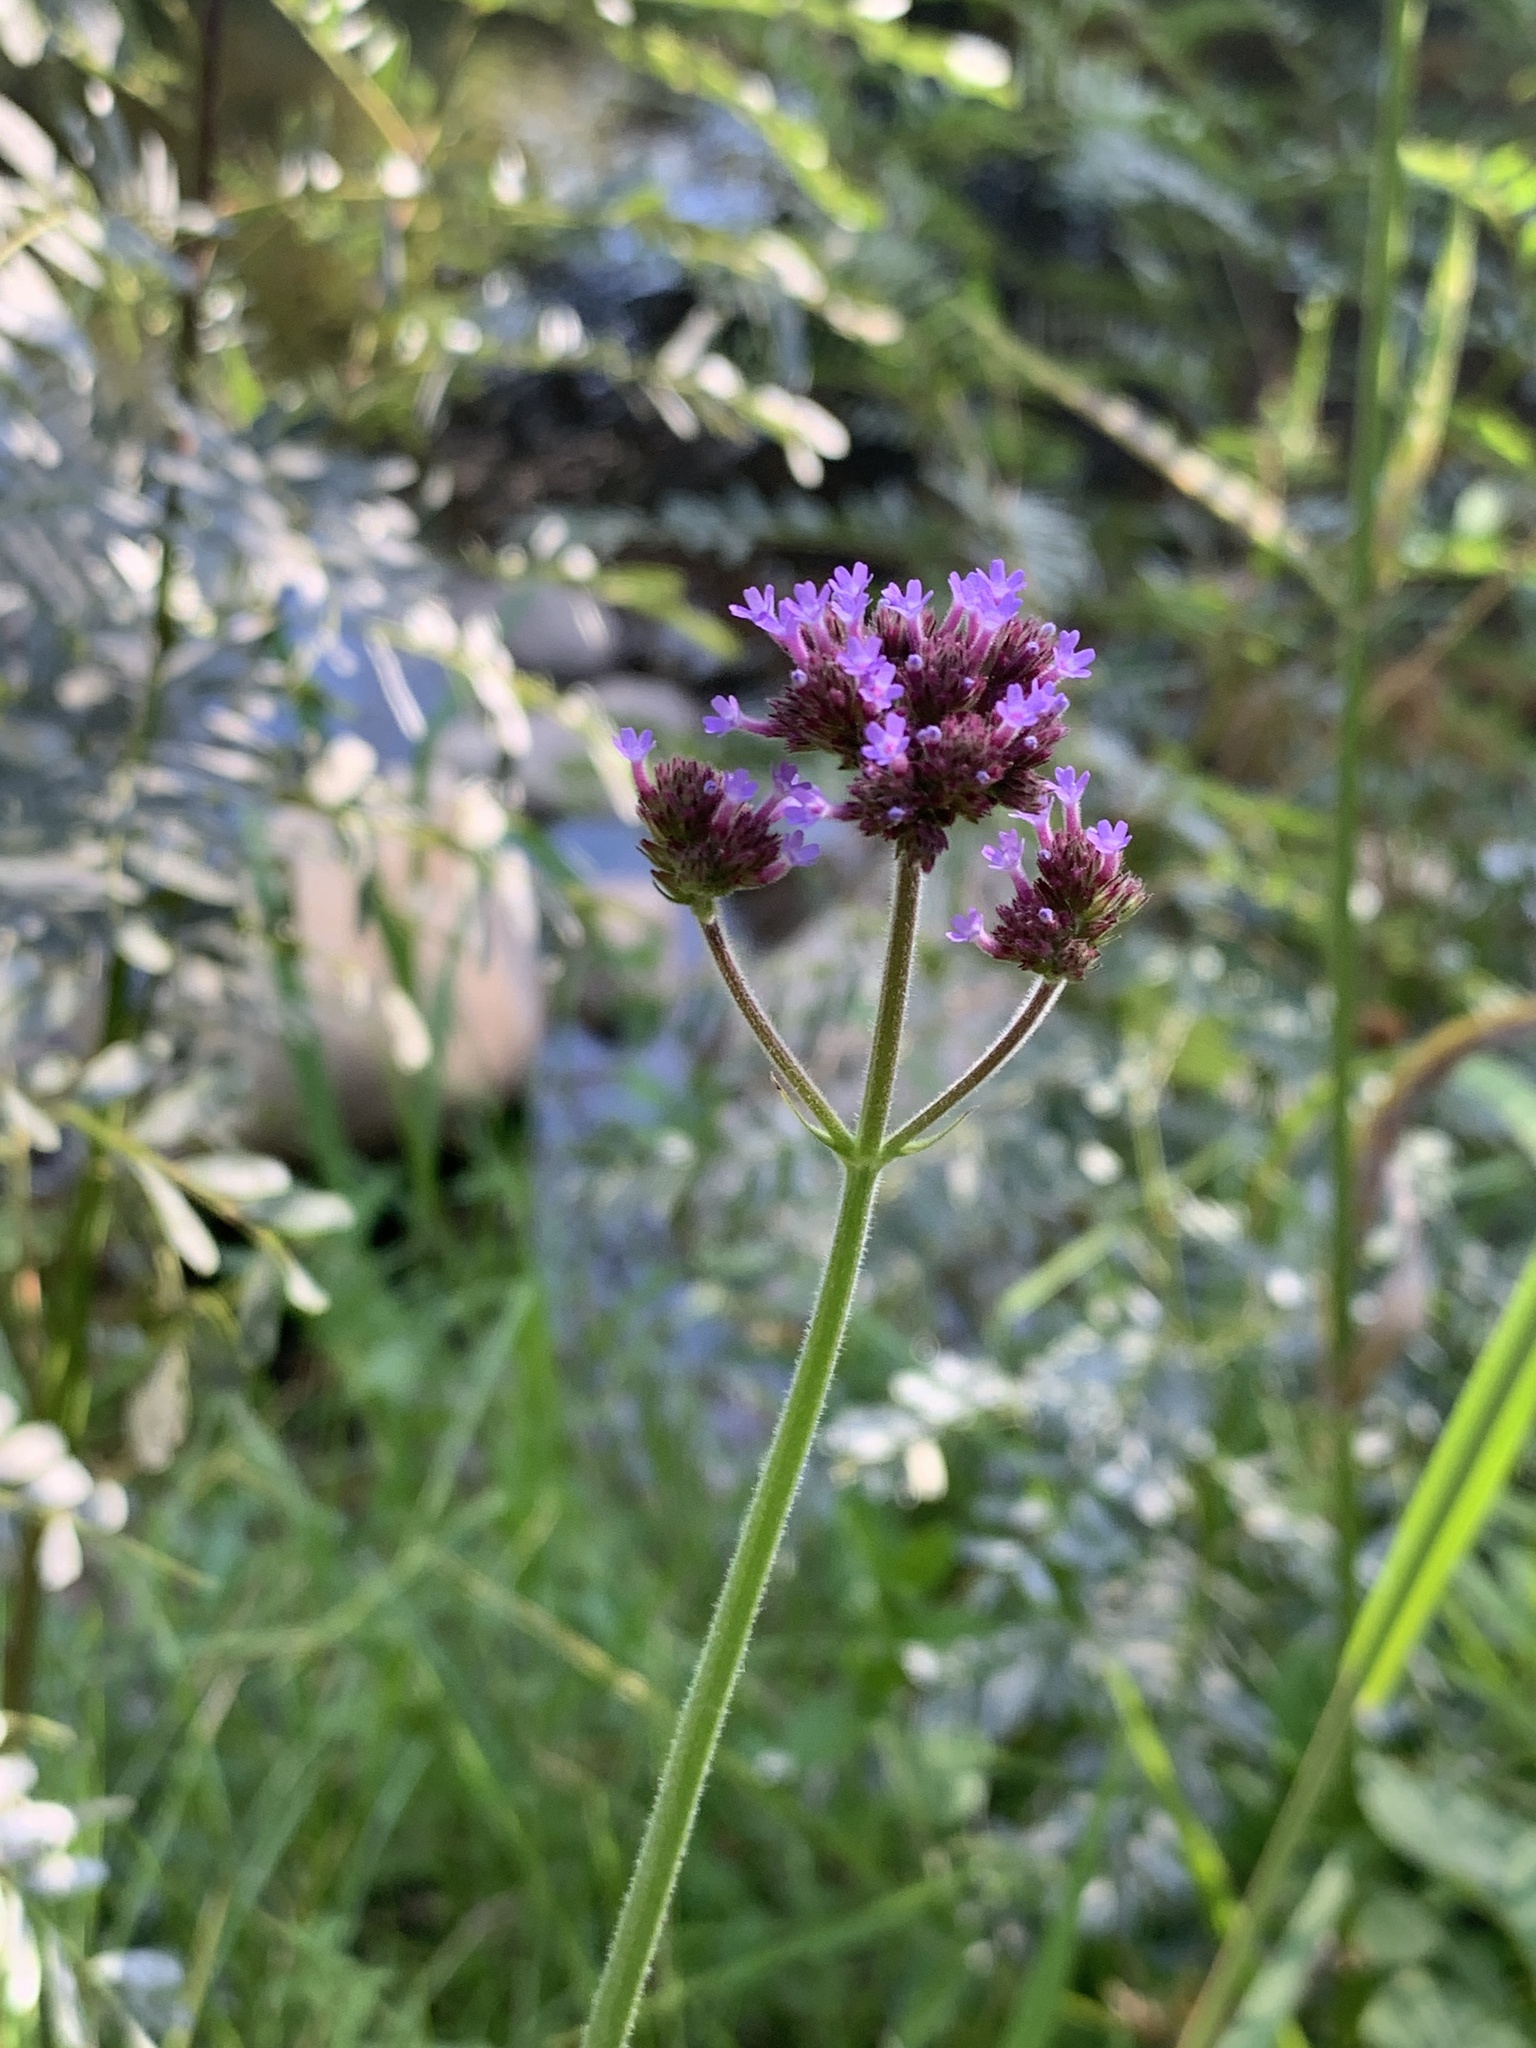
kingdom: Plantae
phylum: Tracheophyta
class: Magnoliopsida
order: Lamiales
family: Verbenaceae
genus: Verbena
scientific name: Verbena bonariensis
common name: Purpletop vervain
